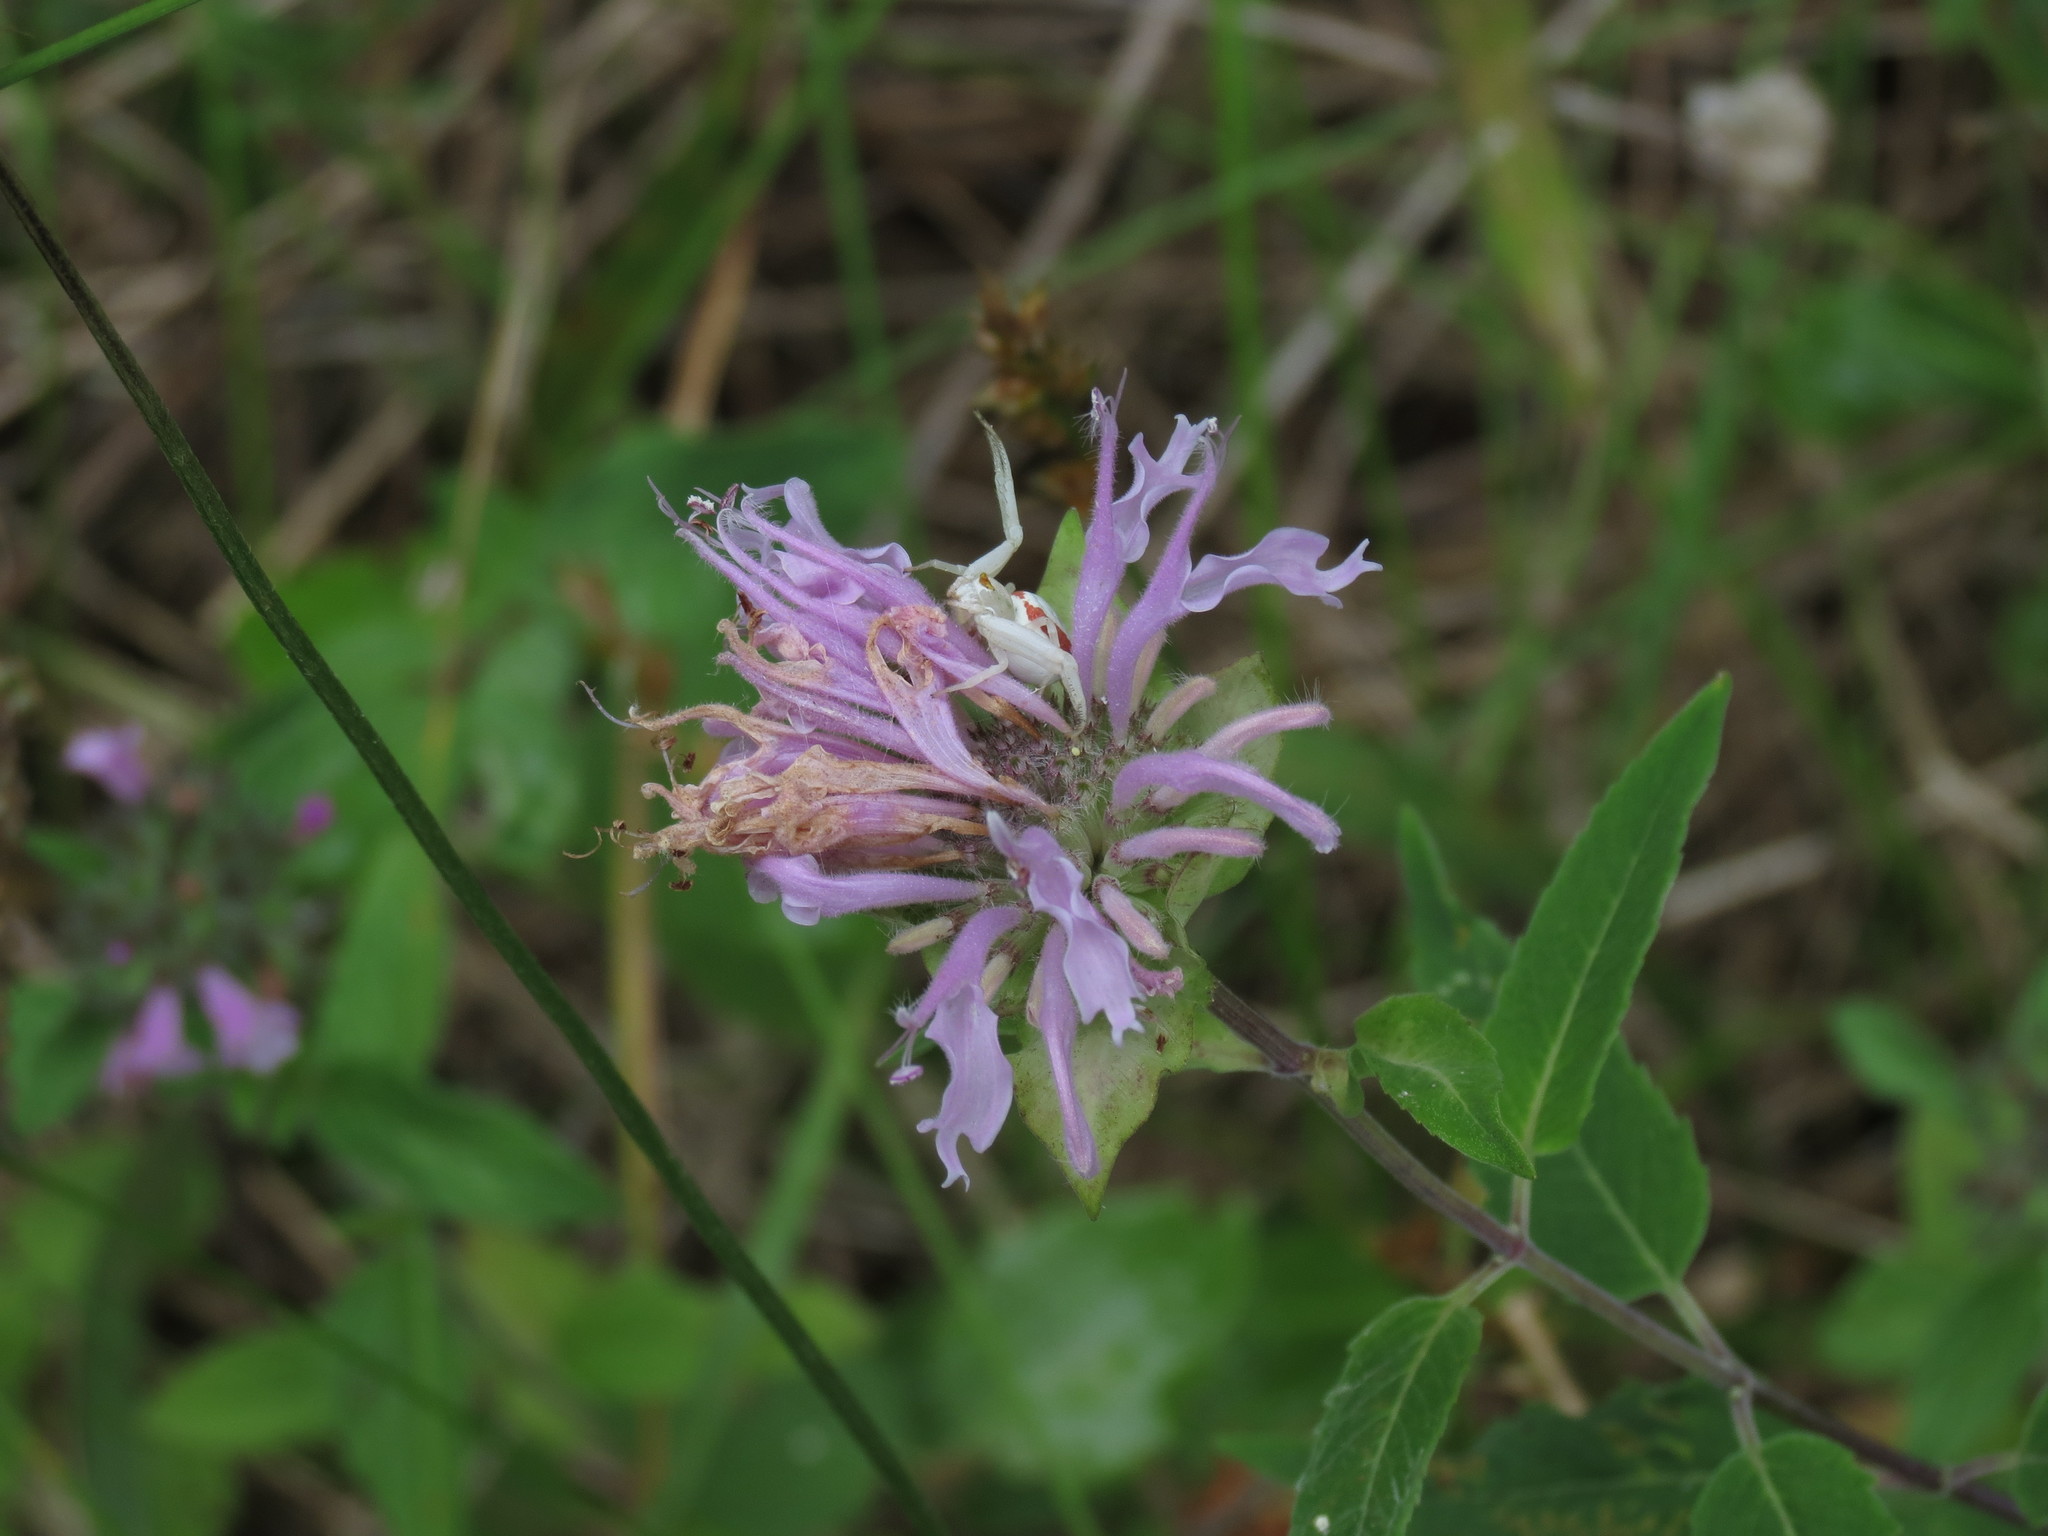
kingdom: Animalia
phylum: Arthropoda
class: Arachnida
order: Araneae
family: Thomisidae
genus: Misumena
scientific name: Misumena vatia
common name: Goldenrod crab spider
